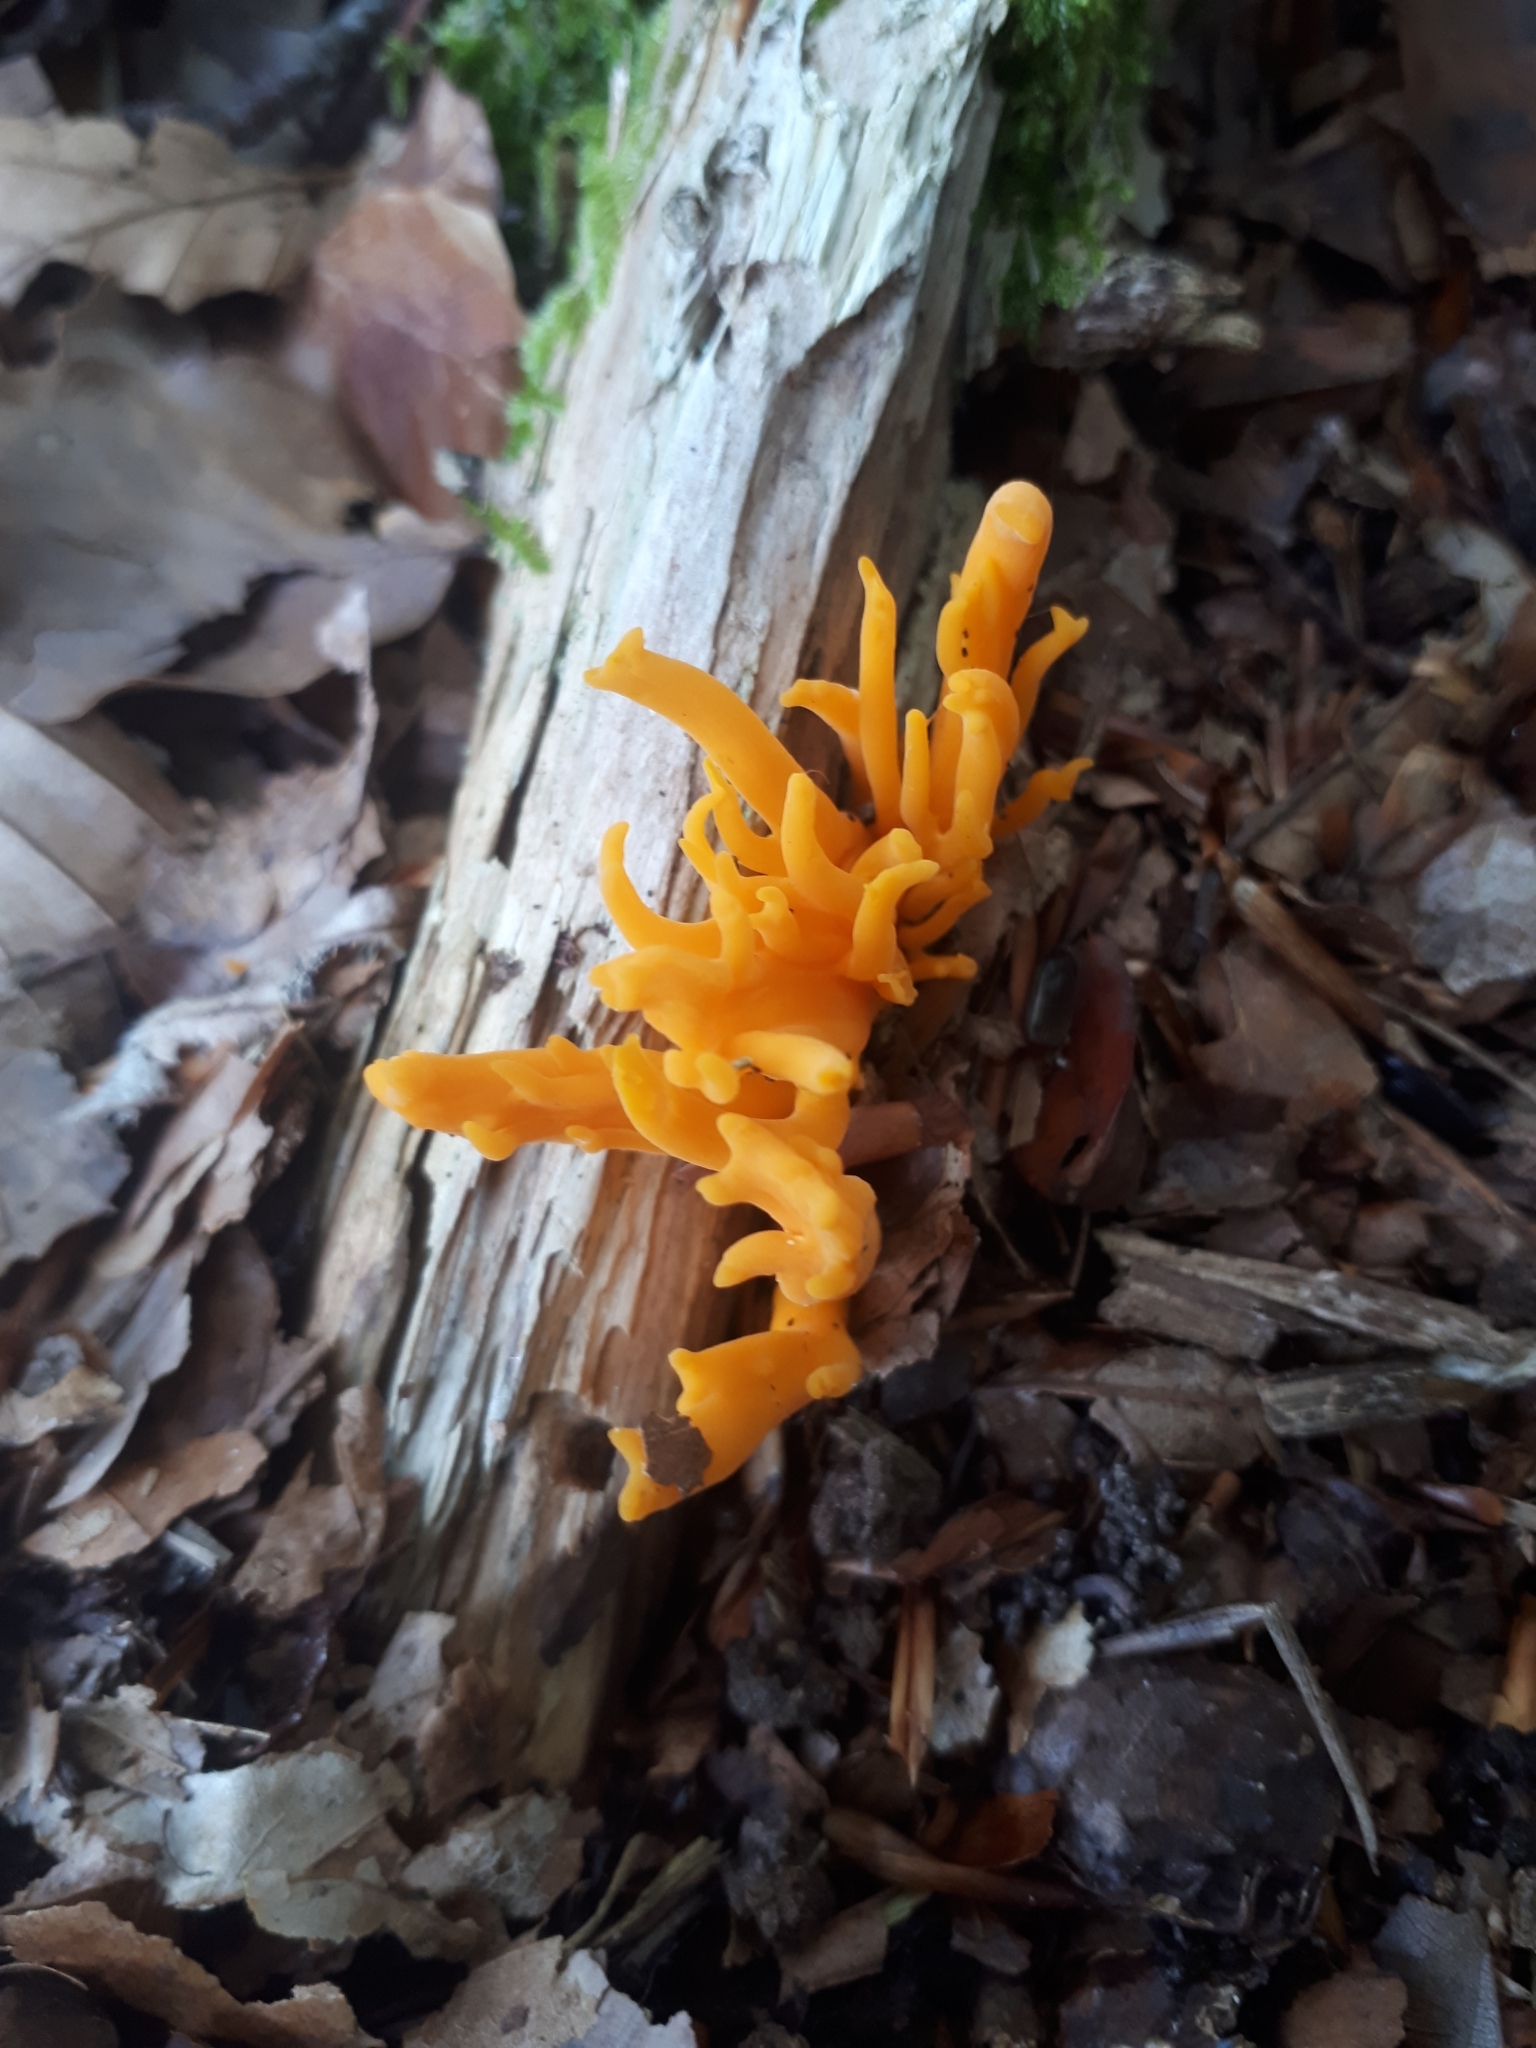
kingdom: Fungi
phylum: Basidiomycota
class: Dacrymycetes
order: Dacrymycetales
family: Dacrymycetaceae
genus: Calocera
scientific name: Calocera viscosa
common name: Yellow stagshorn
